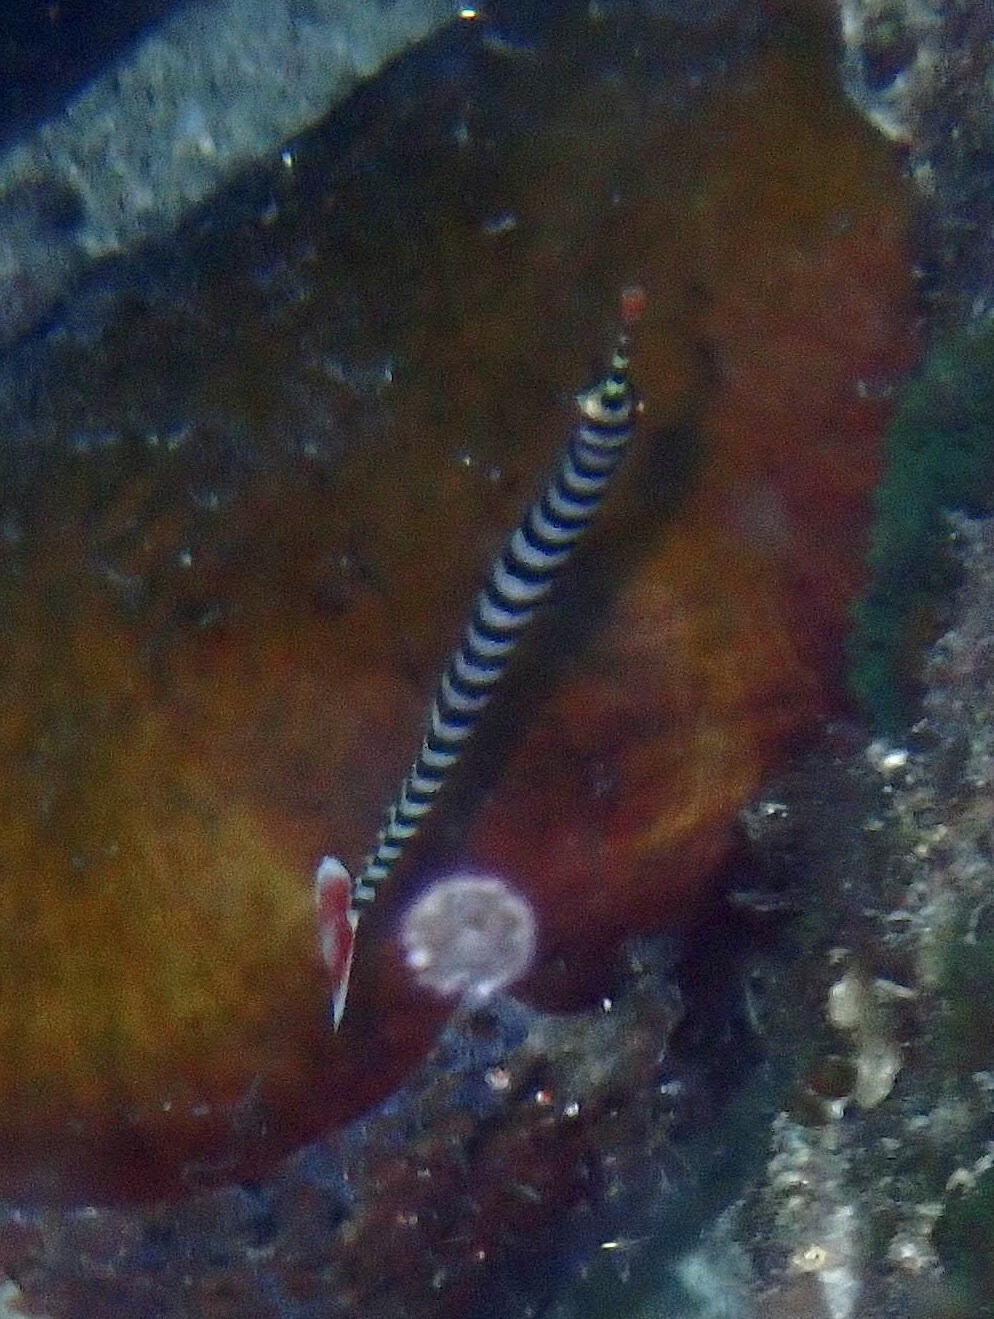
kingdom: Animalia
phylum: Chordata
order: Syngnathiformes
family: Syngnathidae
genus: Dunckerocampus
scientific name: Dunckerocampus dactyliophorus
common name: Banded pipefish
